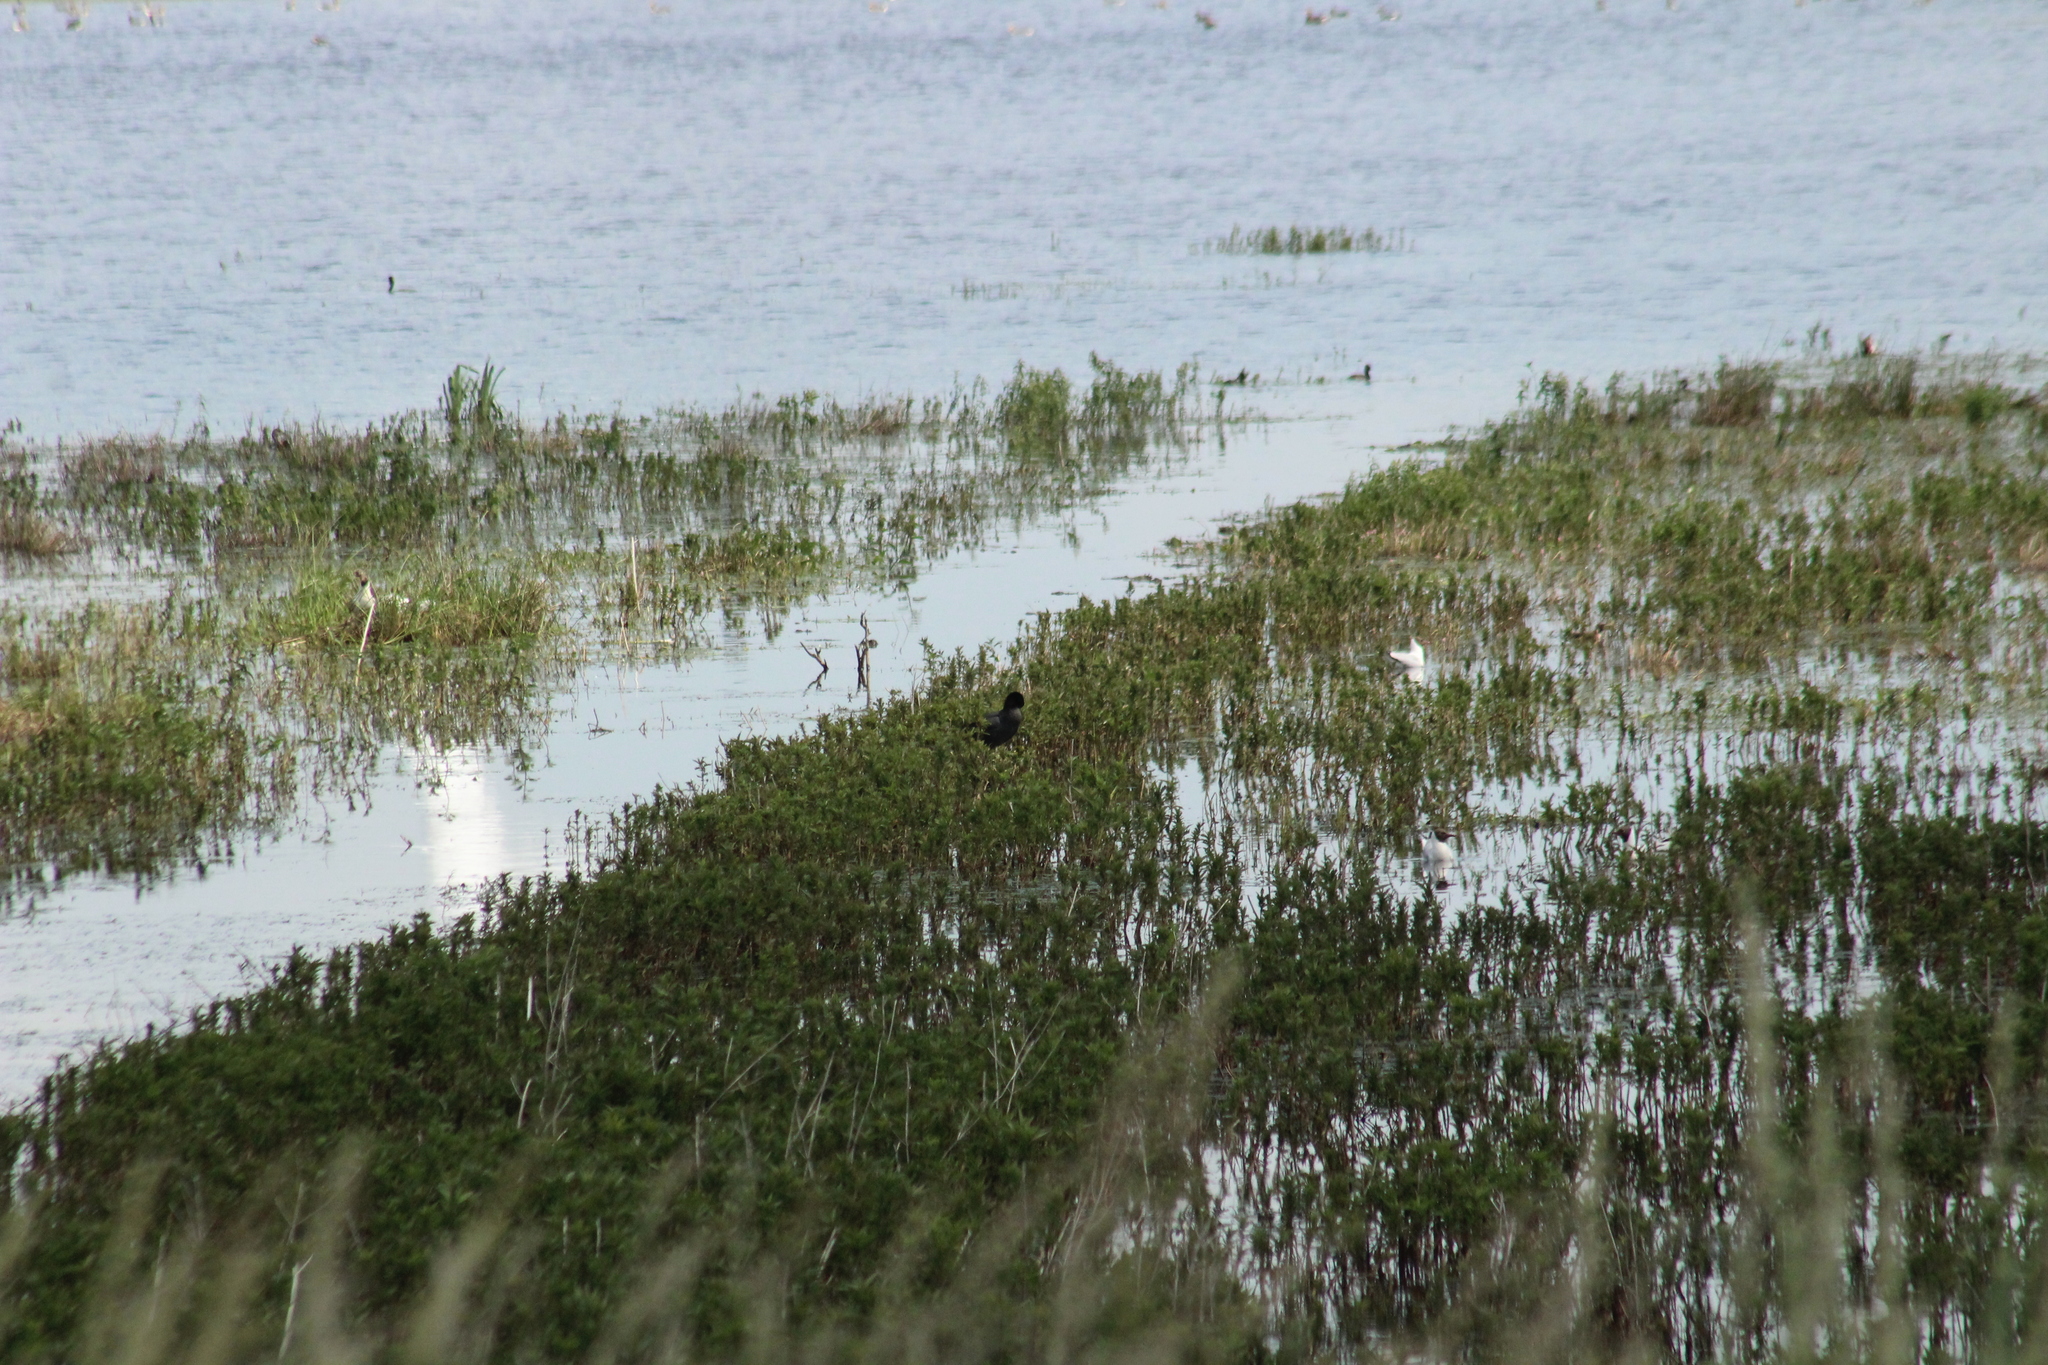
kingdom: Animalia
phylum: Chordata
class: Aves
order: Gruiformes
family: Rallidae
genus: Fulica
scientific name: Fulica atra
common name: Eurasian coot
